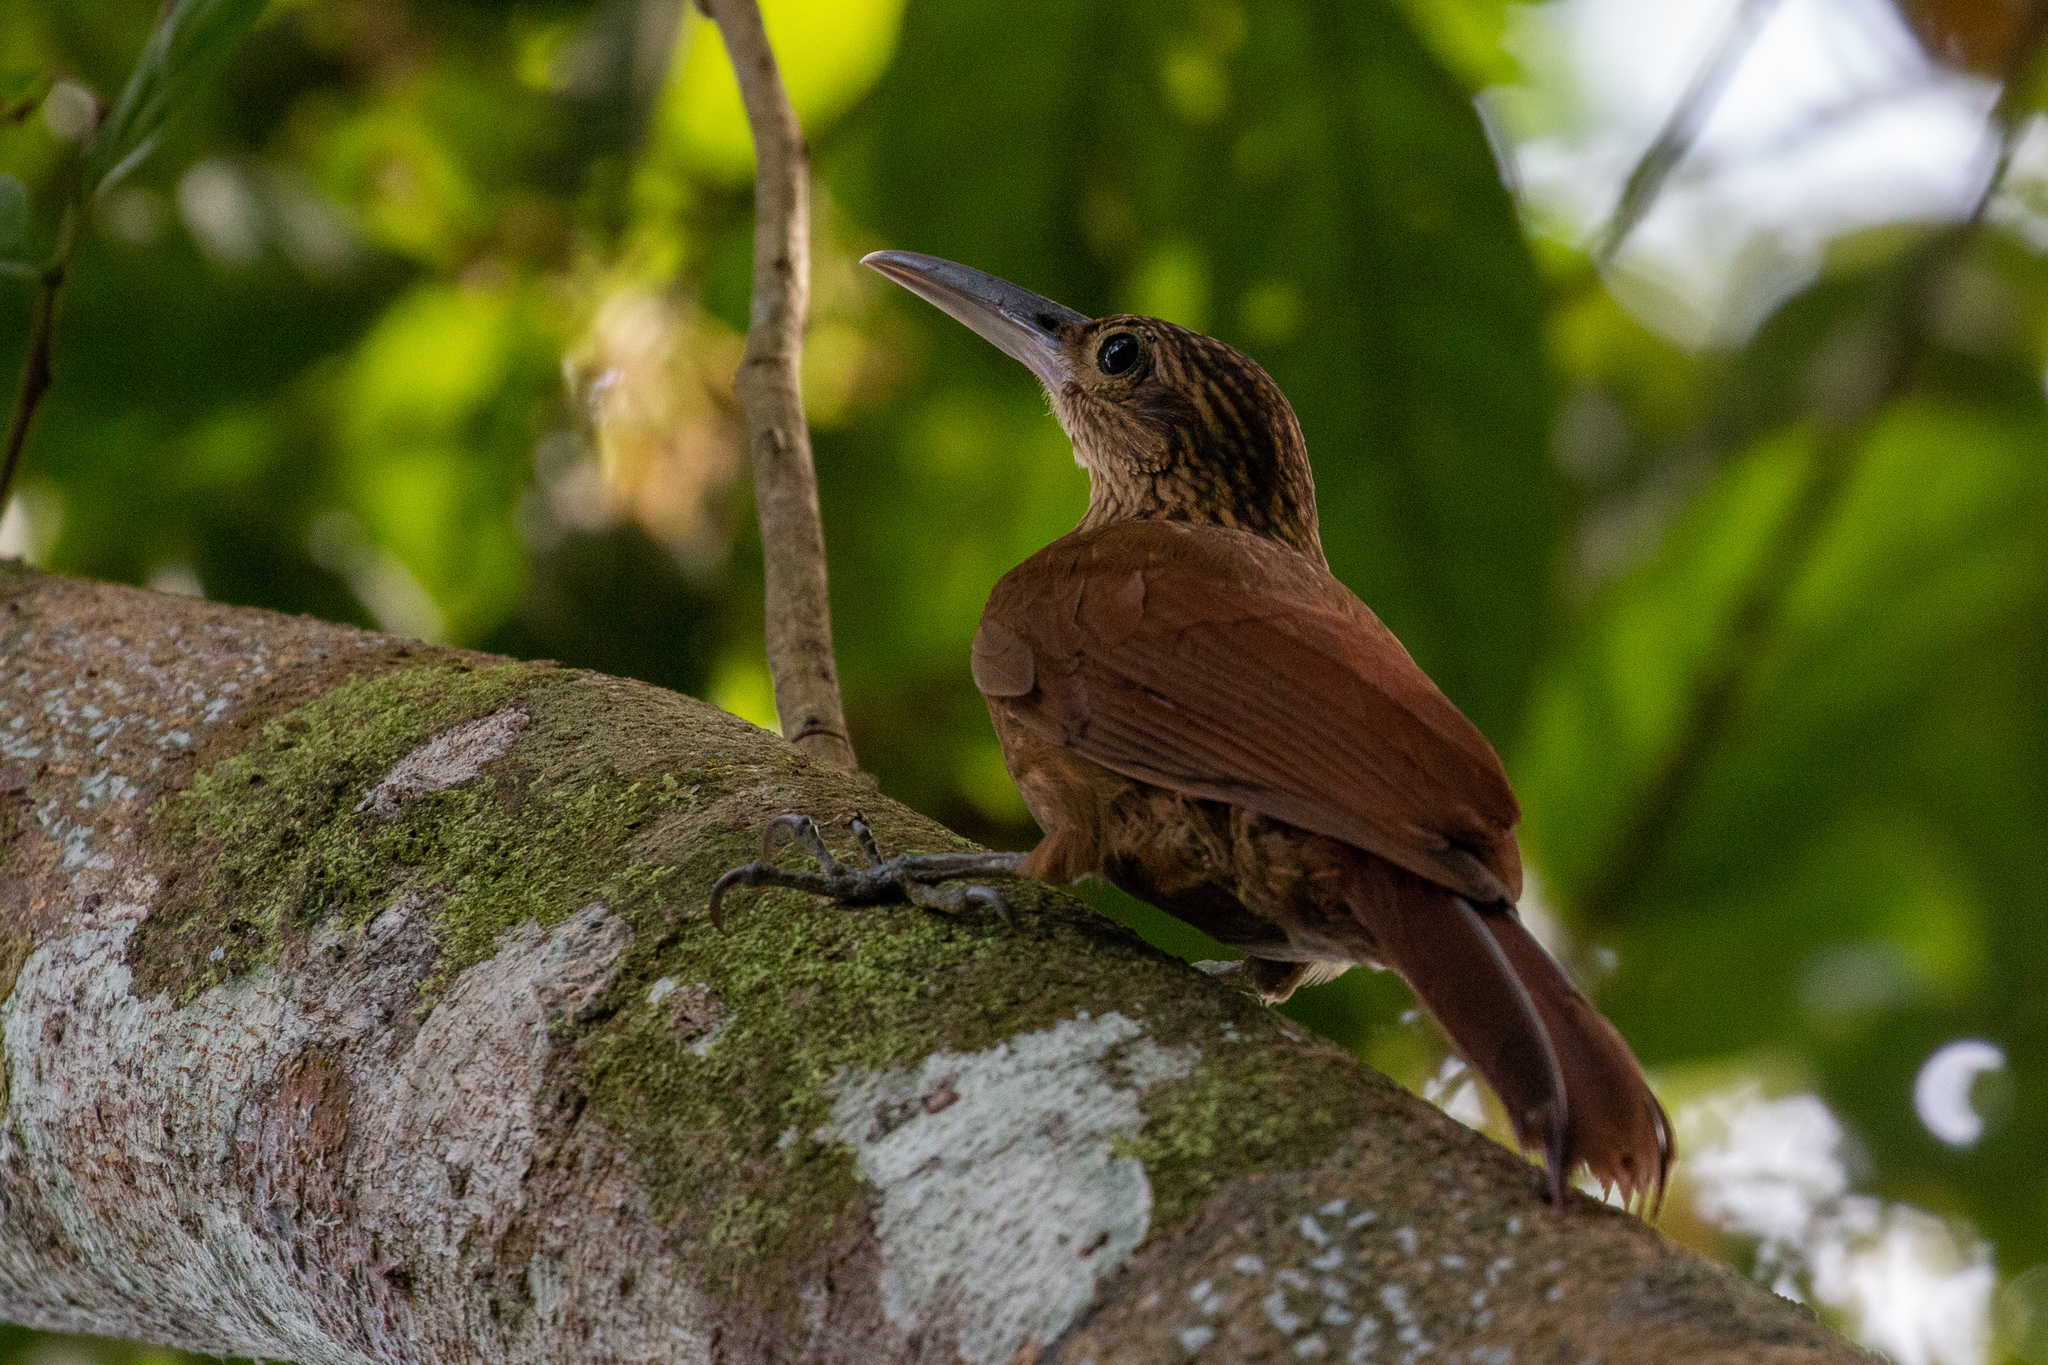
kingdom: Animalia
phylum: Chordata
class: Aves
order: Passeriformes
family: Furnariidae
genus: Xiphorhynchus
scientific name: Xiphorhynchus guttatus
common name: Buff-throated woodcreeper
